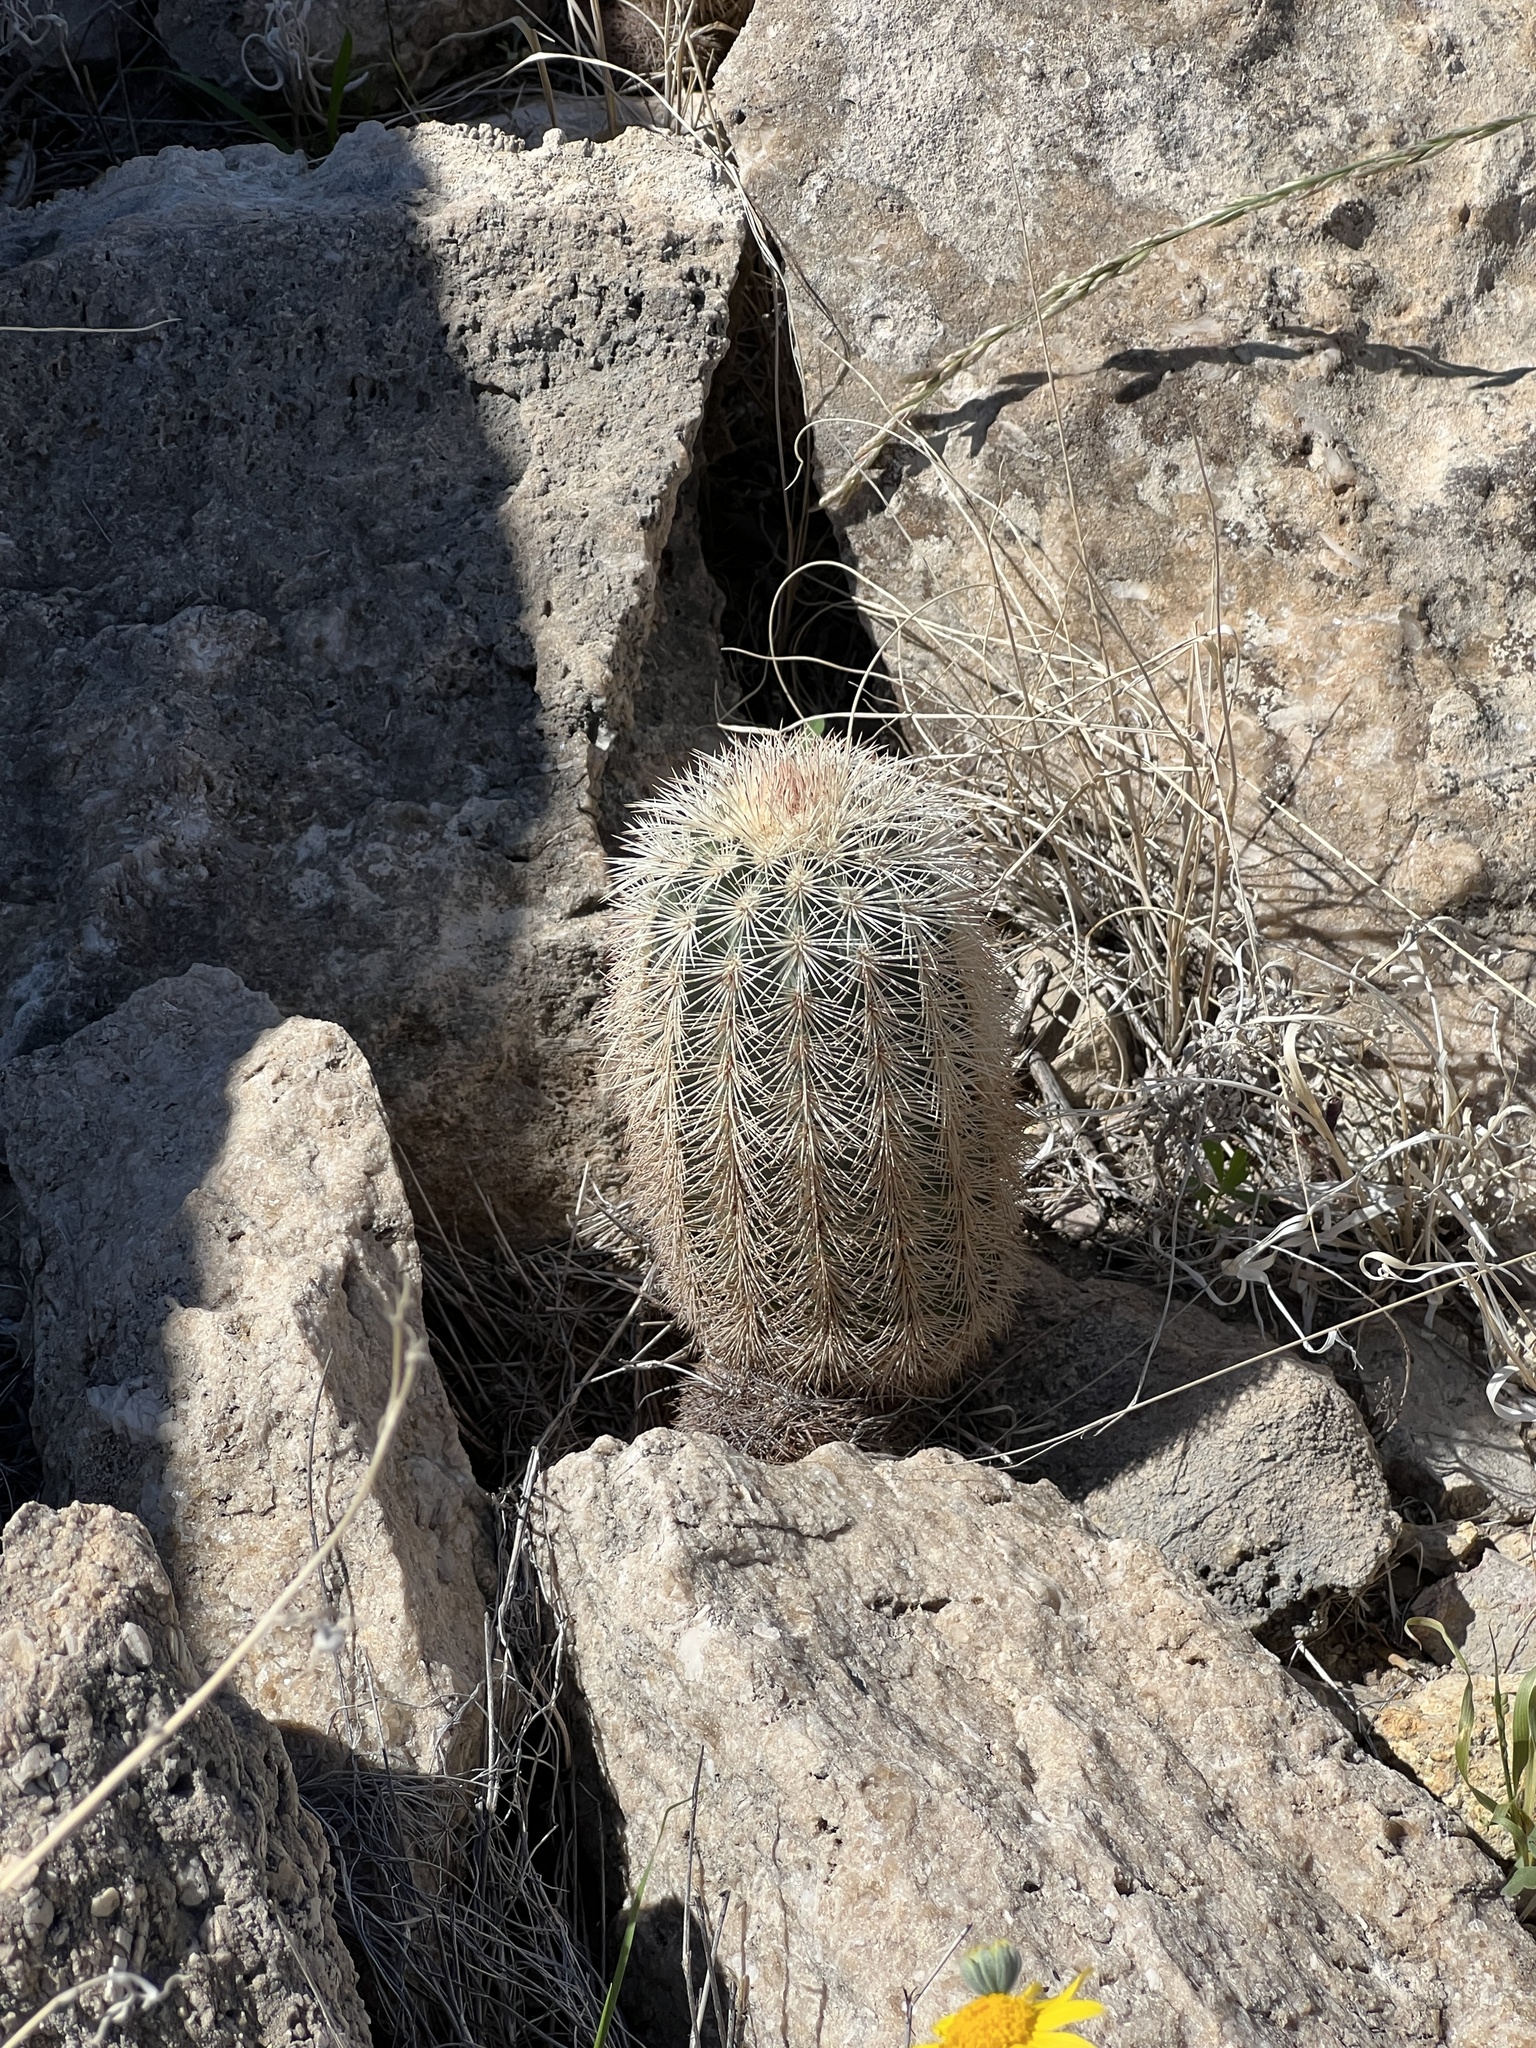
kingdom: Plantae
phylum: Tracheophyta
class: Magnoliopsida
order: Caryophyllales
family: Cactaceae
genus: Echinocereus
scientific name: Echinocereus dasyacanthus
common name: Spiny hedgehog cactus
